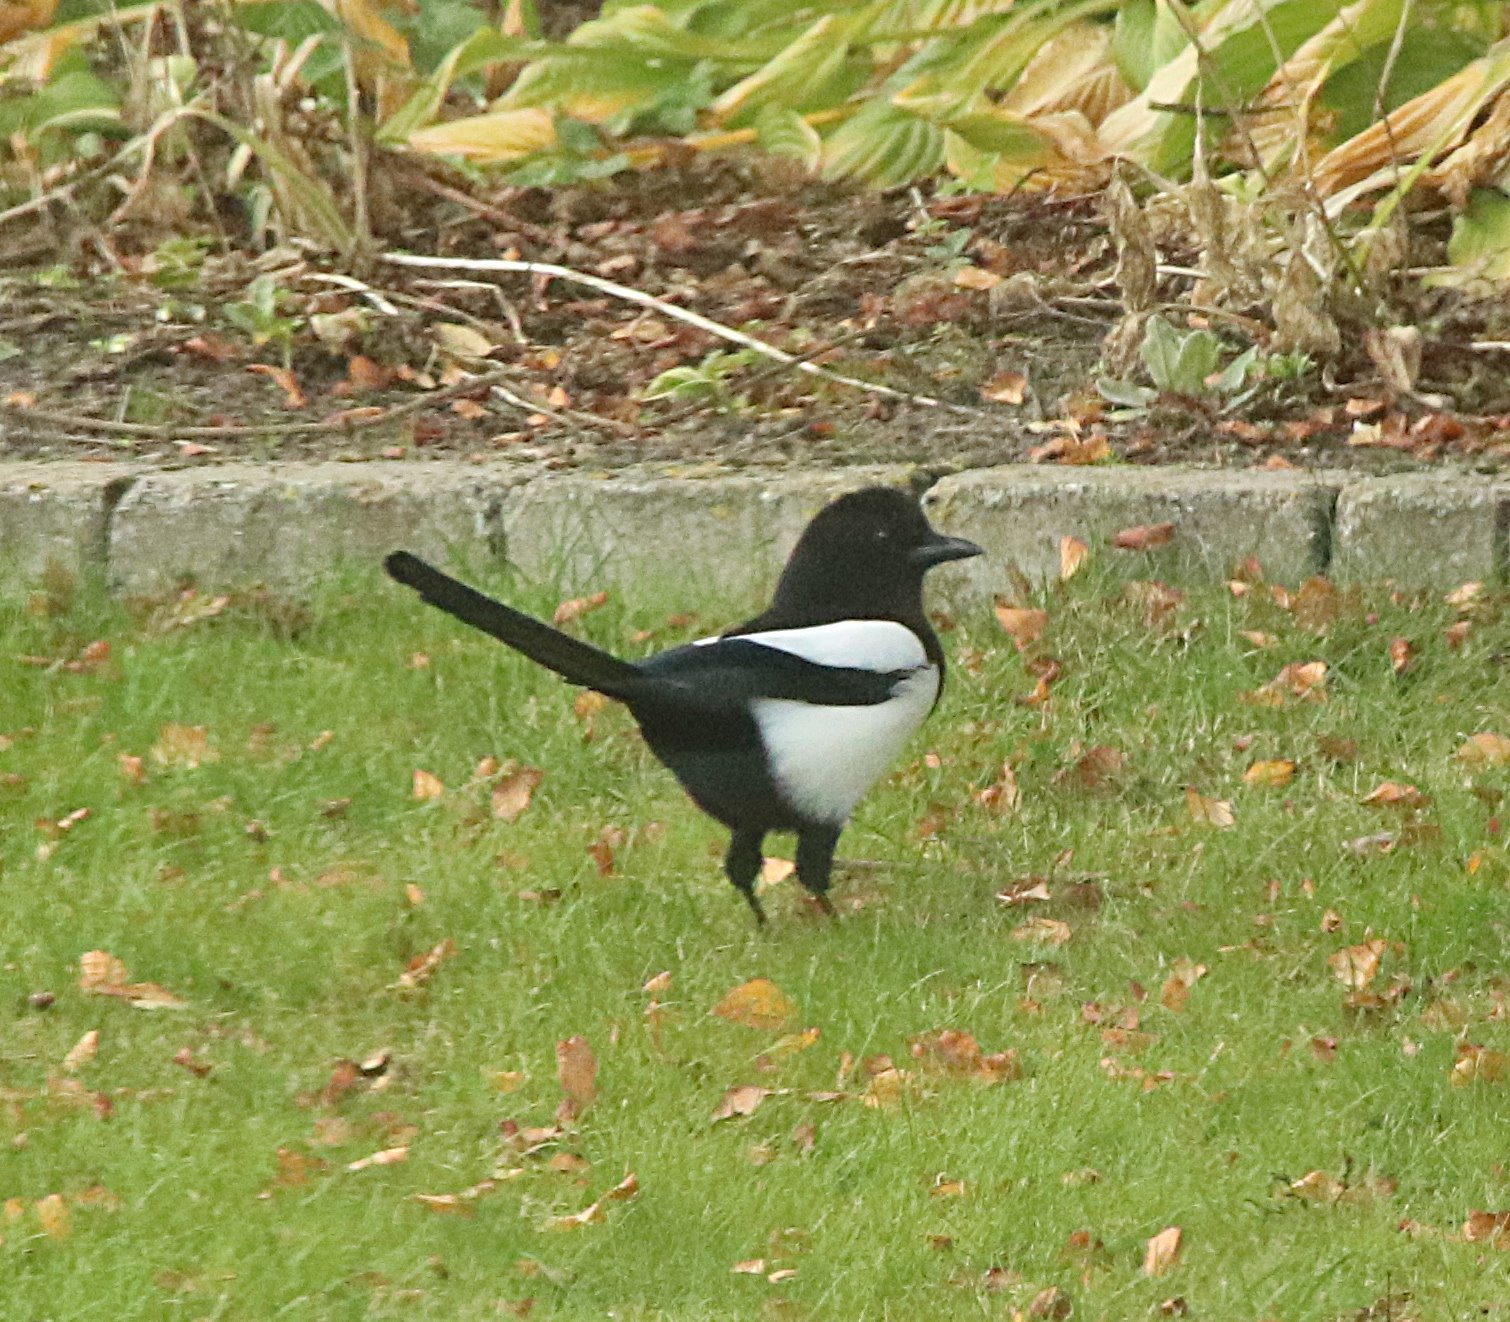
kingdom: Animalia
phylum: Chordata
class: Aves
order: Passeriformes
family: Corvidae
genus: Pica
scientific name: Pica pica
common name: Eurasian magpie
